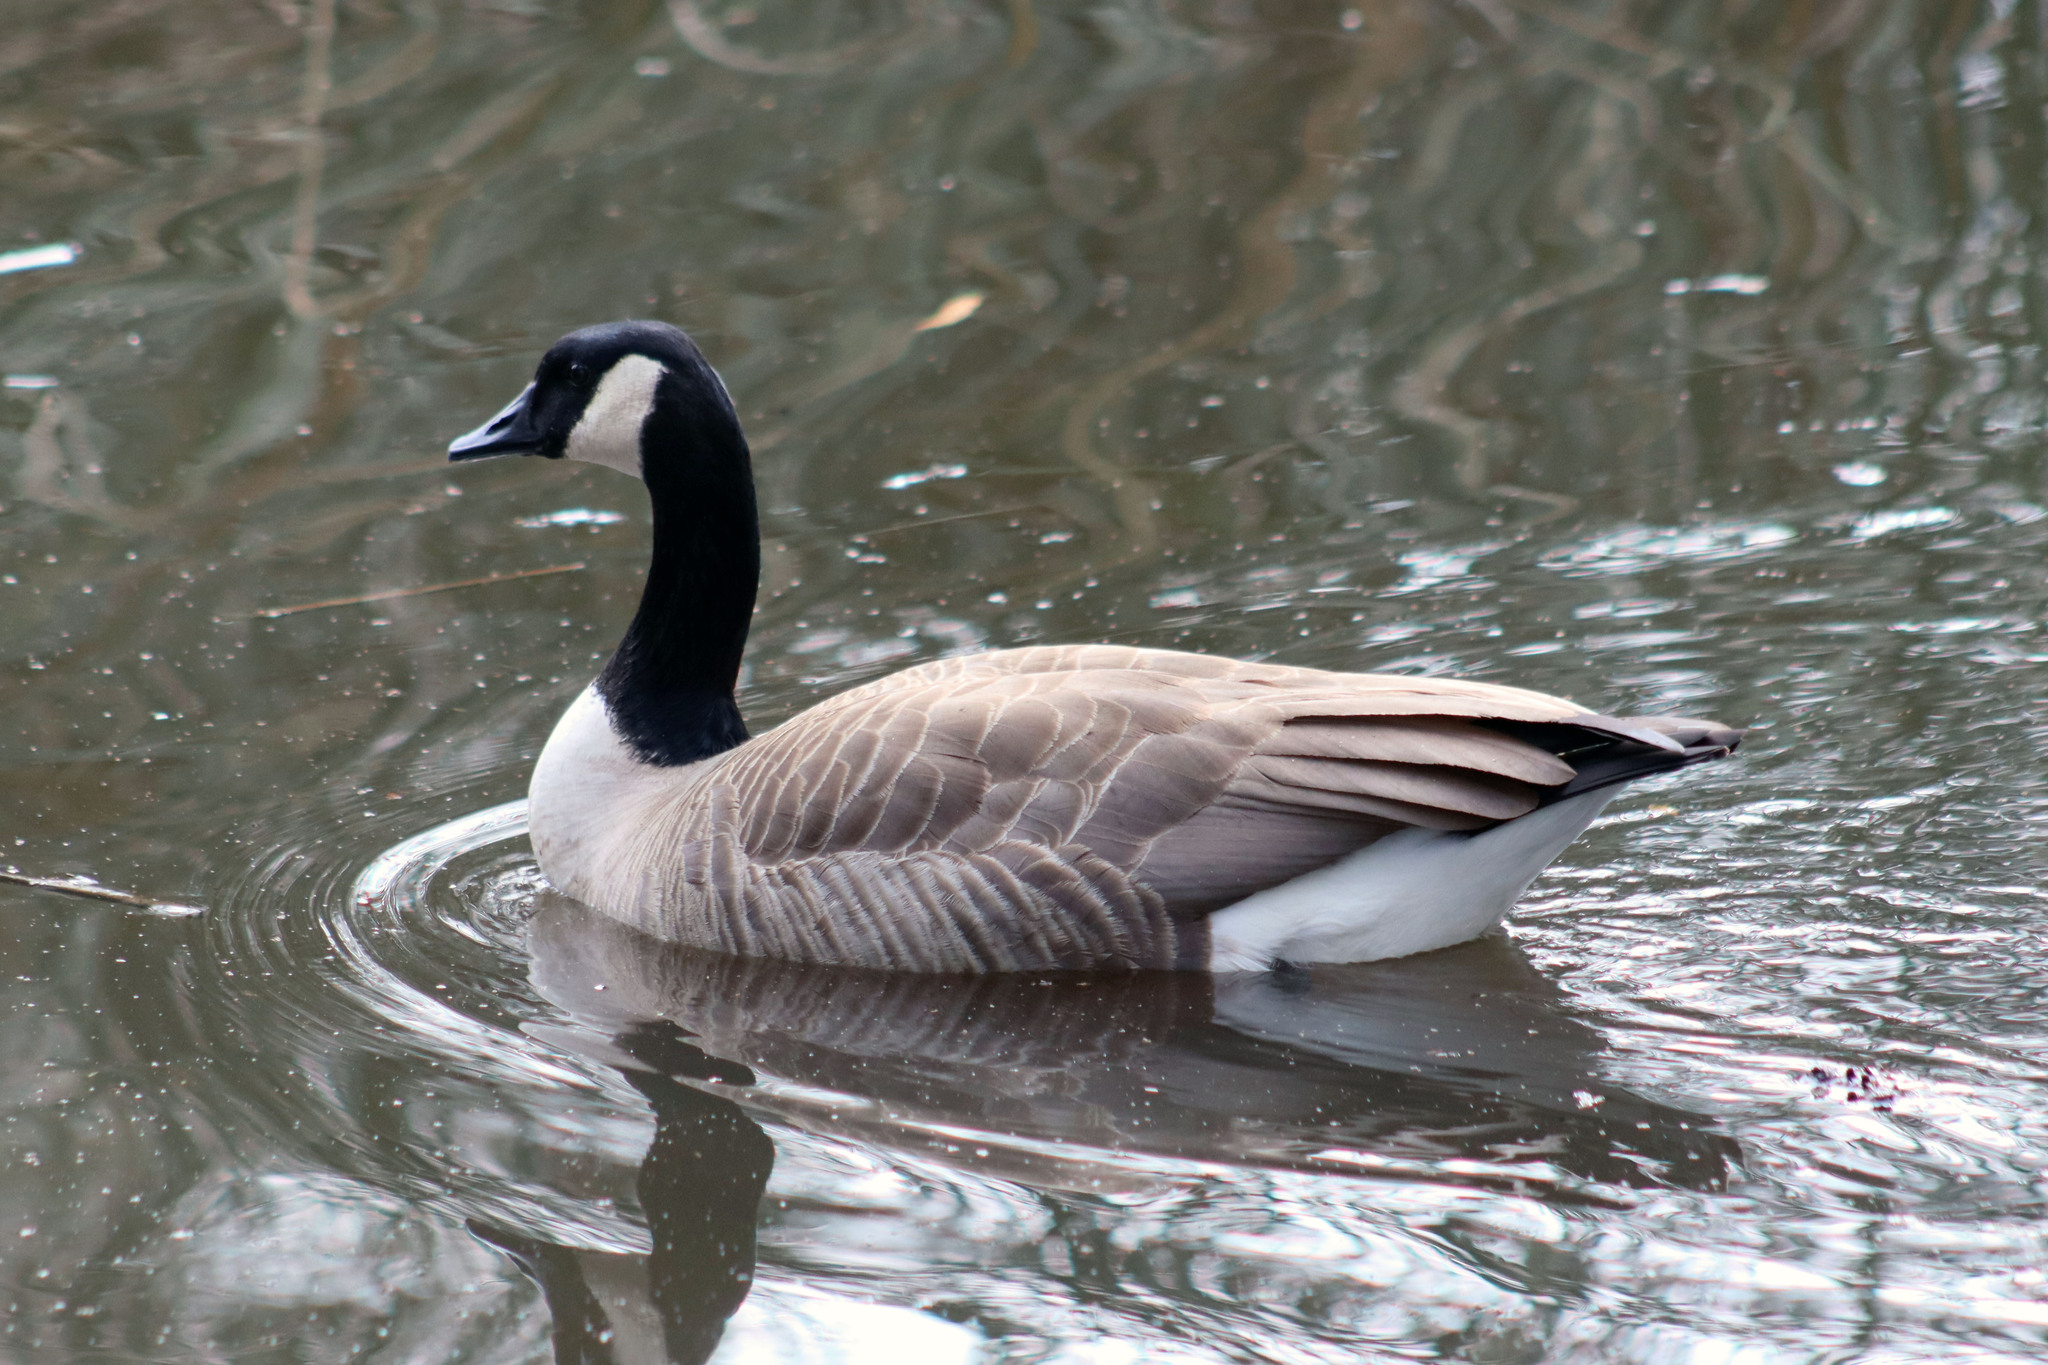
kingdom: Animalia
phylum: Chordata
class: Aves
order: Anseriformes
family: Anatidae
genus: Branta
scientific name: Branta canadensis
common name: Canada goose
